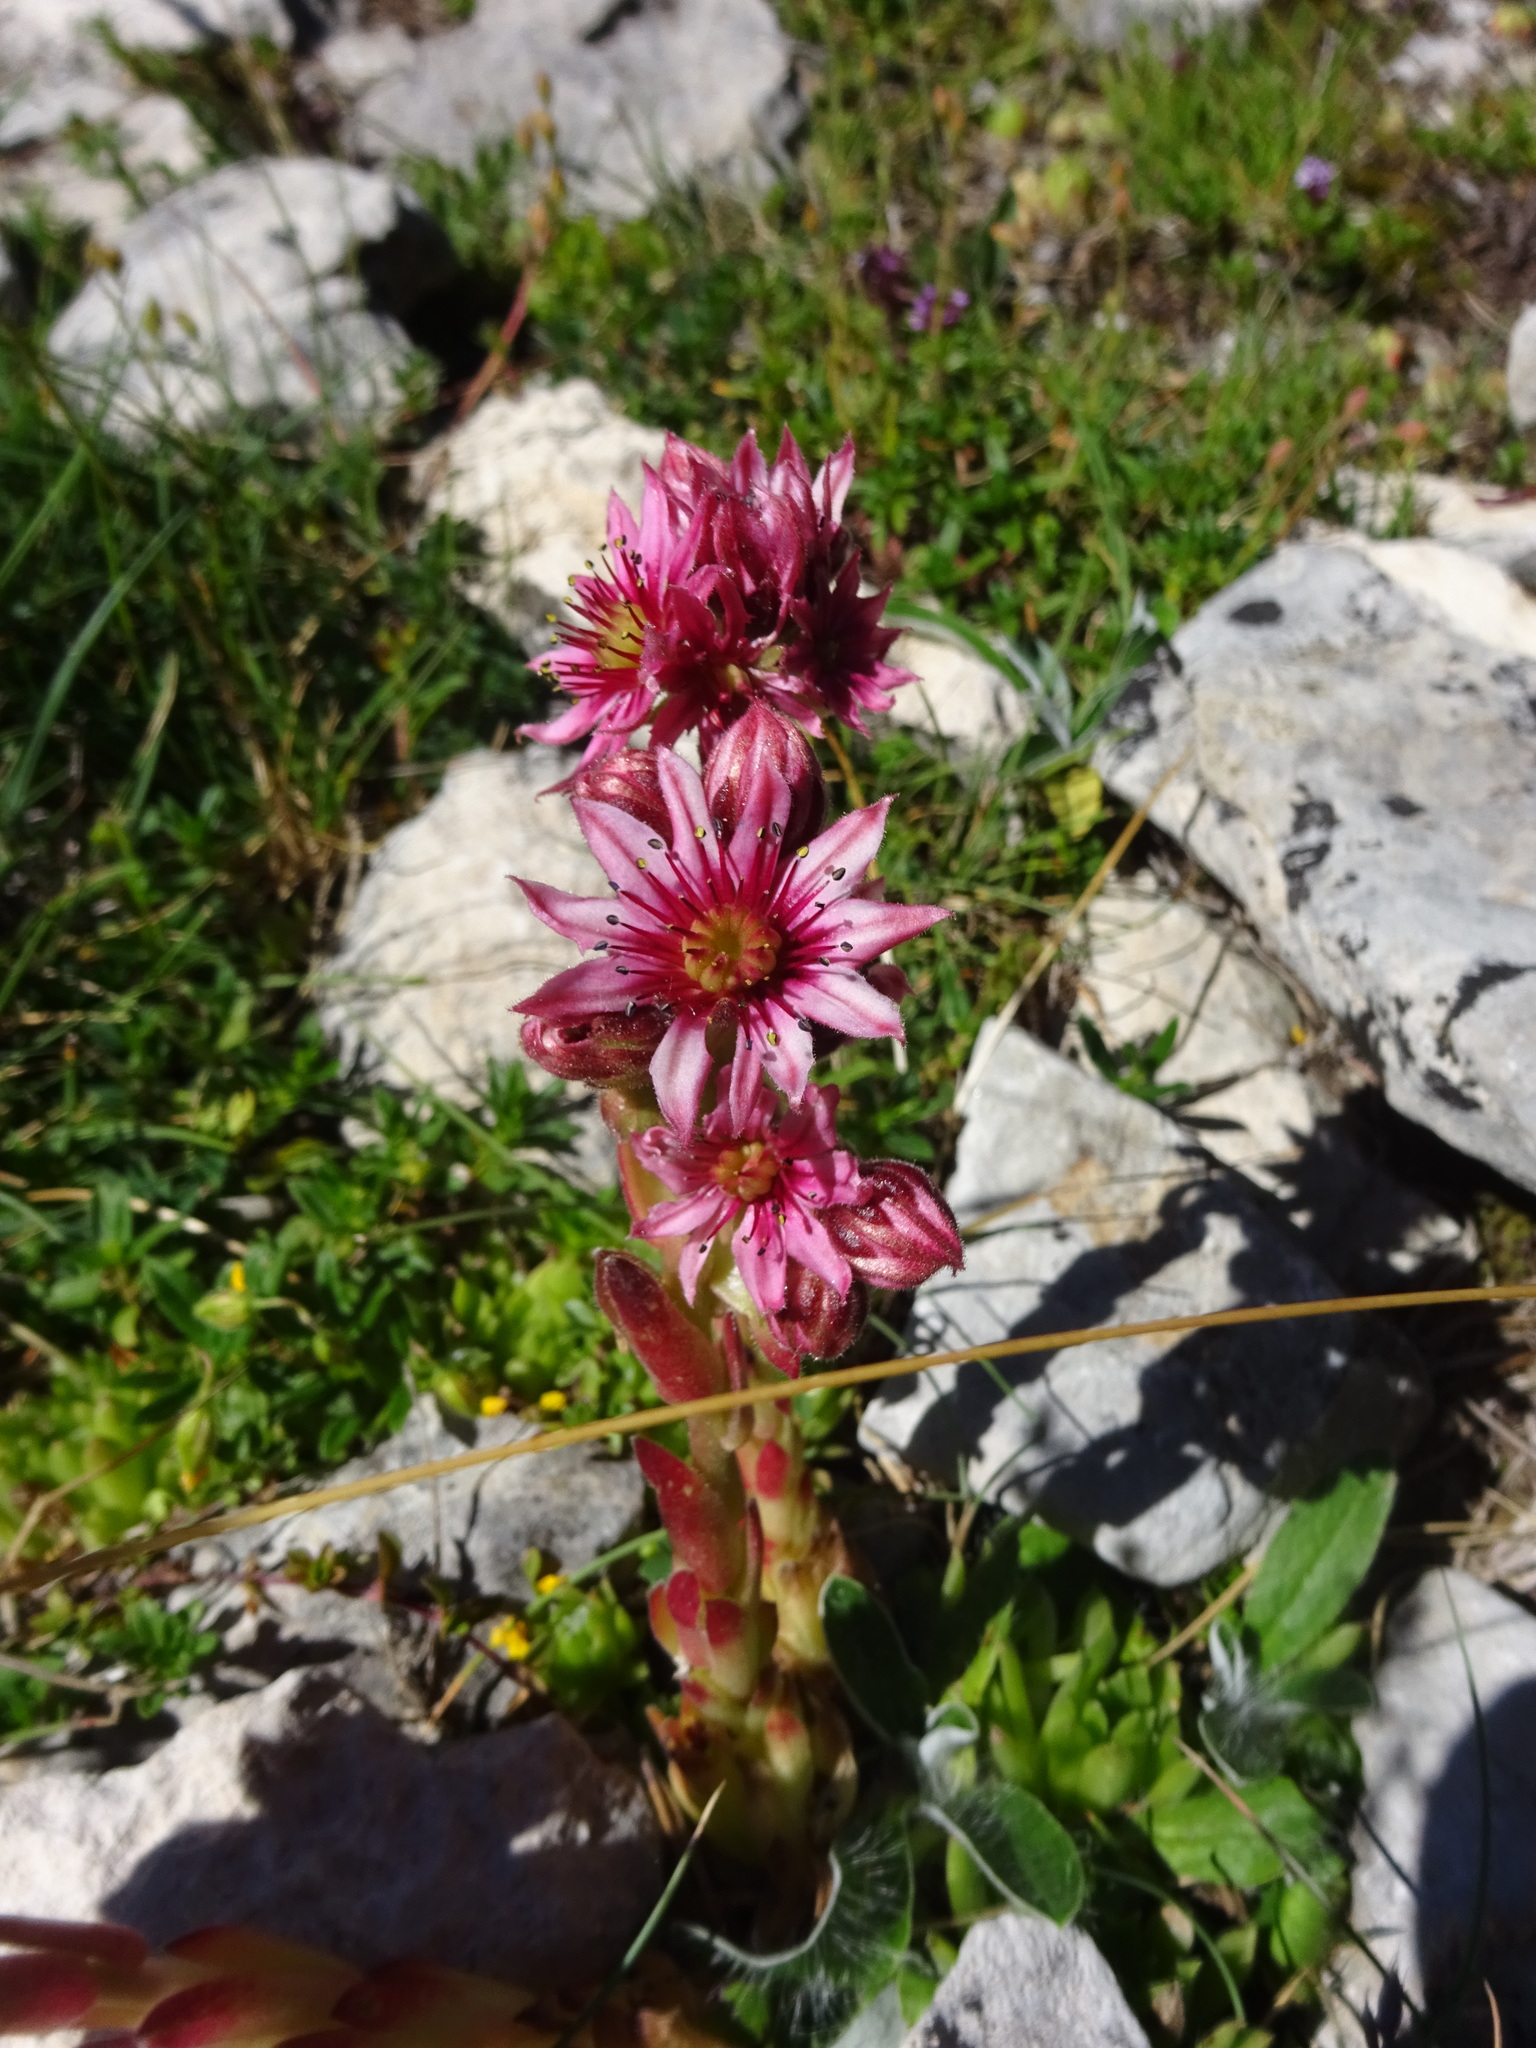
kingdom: Plantae
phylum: Tracheophyta
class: Magnoliopsida
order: Saxifragales
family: Crassulaceae
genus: Sempervivum
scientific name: Sempervivum arachnoideum
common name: Cobweb house-leek
